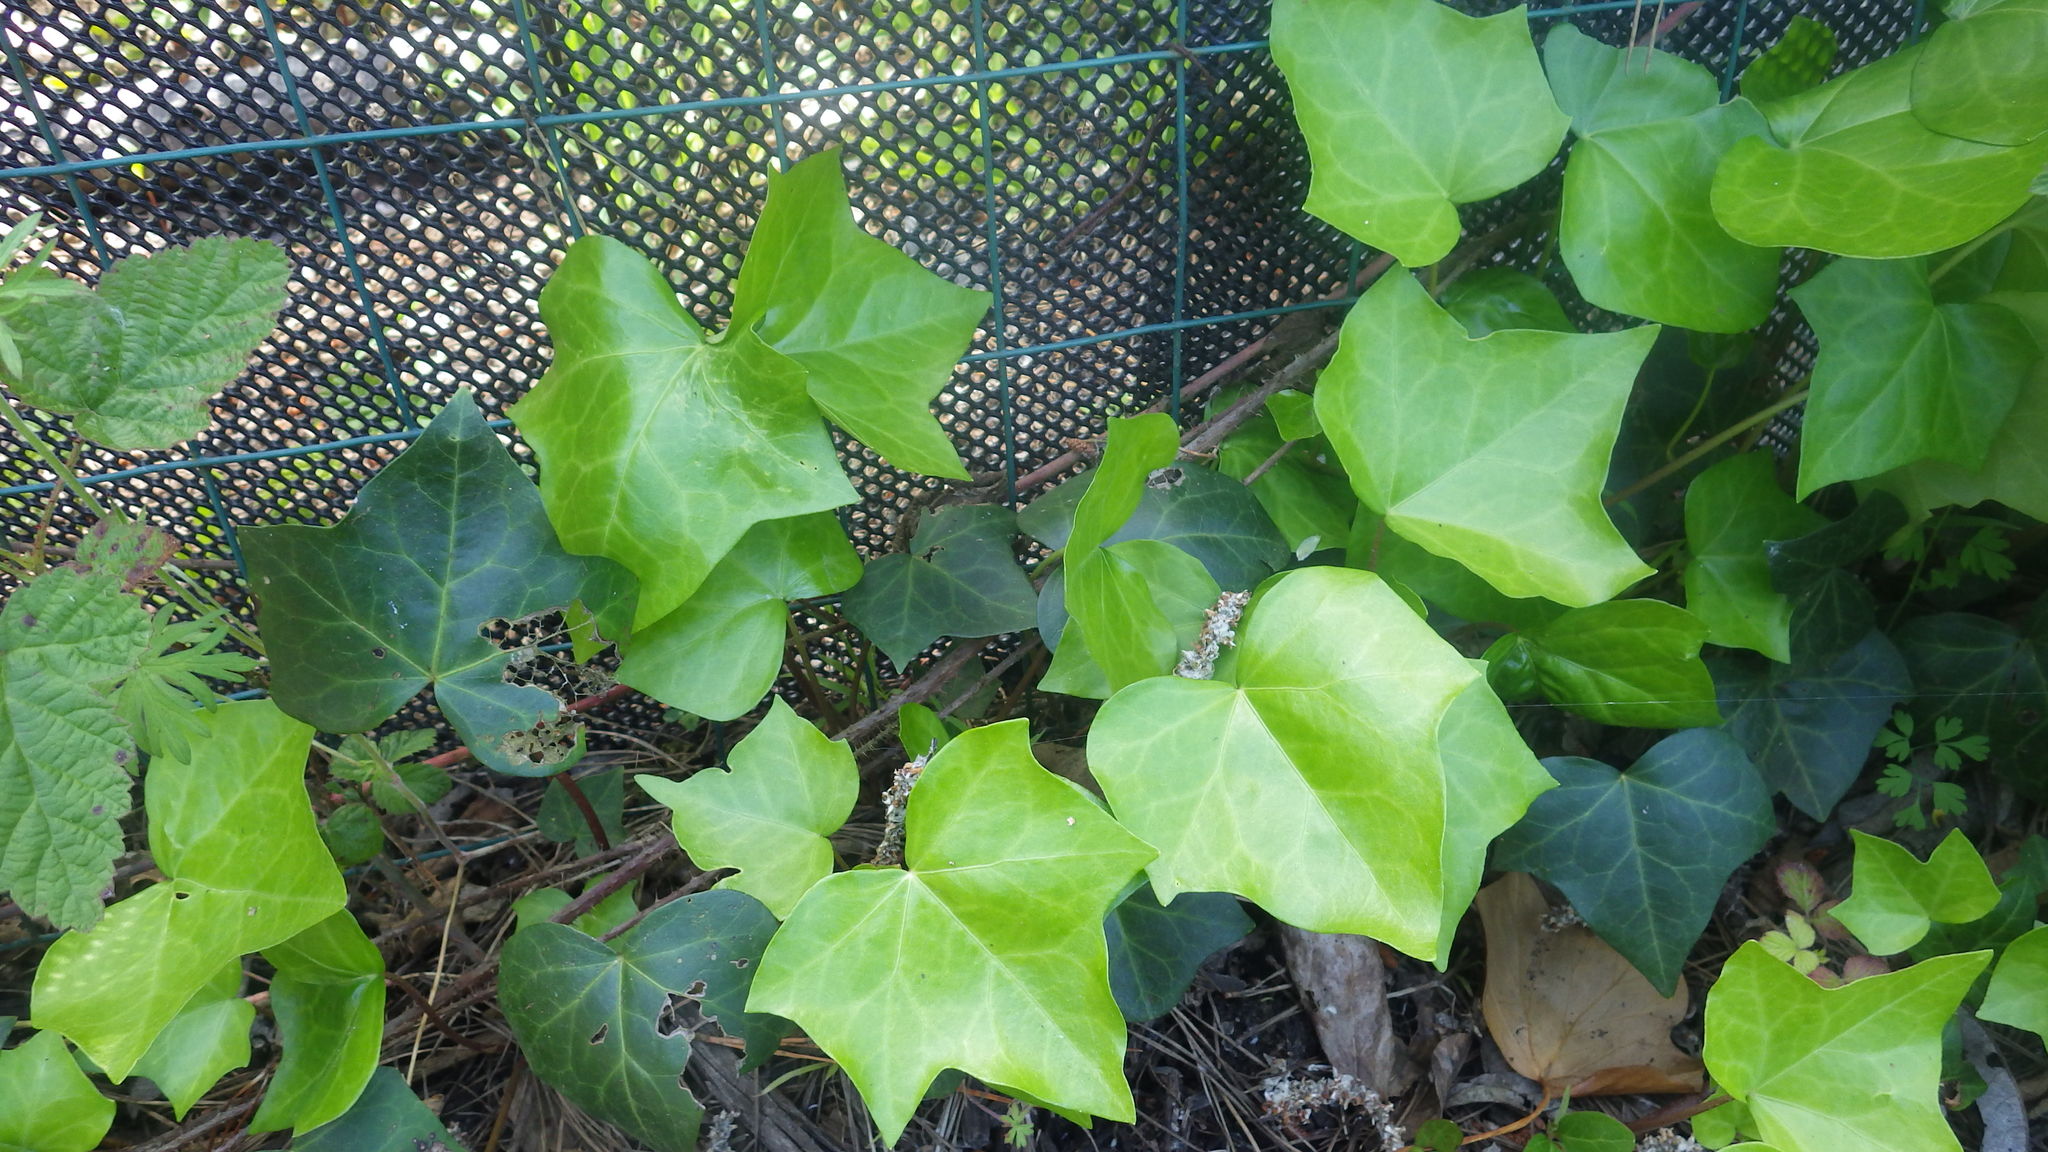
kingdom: Plantae
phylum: Tracheophyta
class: Magnoliopsida
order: Apiales
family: Araliaceae
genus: Hedera
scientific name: Hedera helix
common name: Ivy
